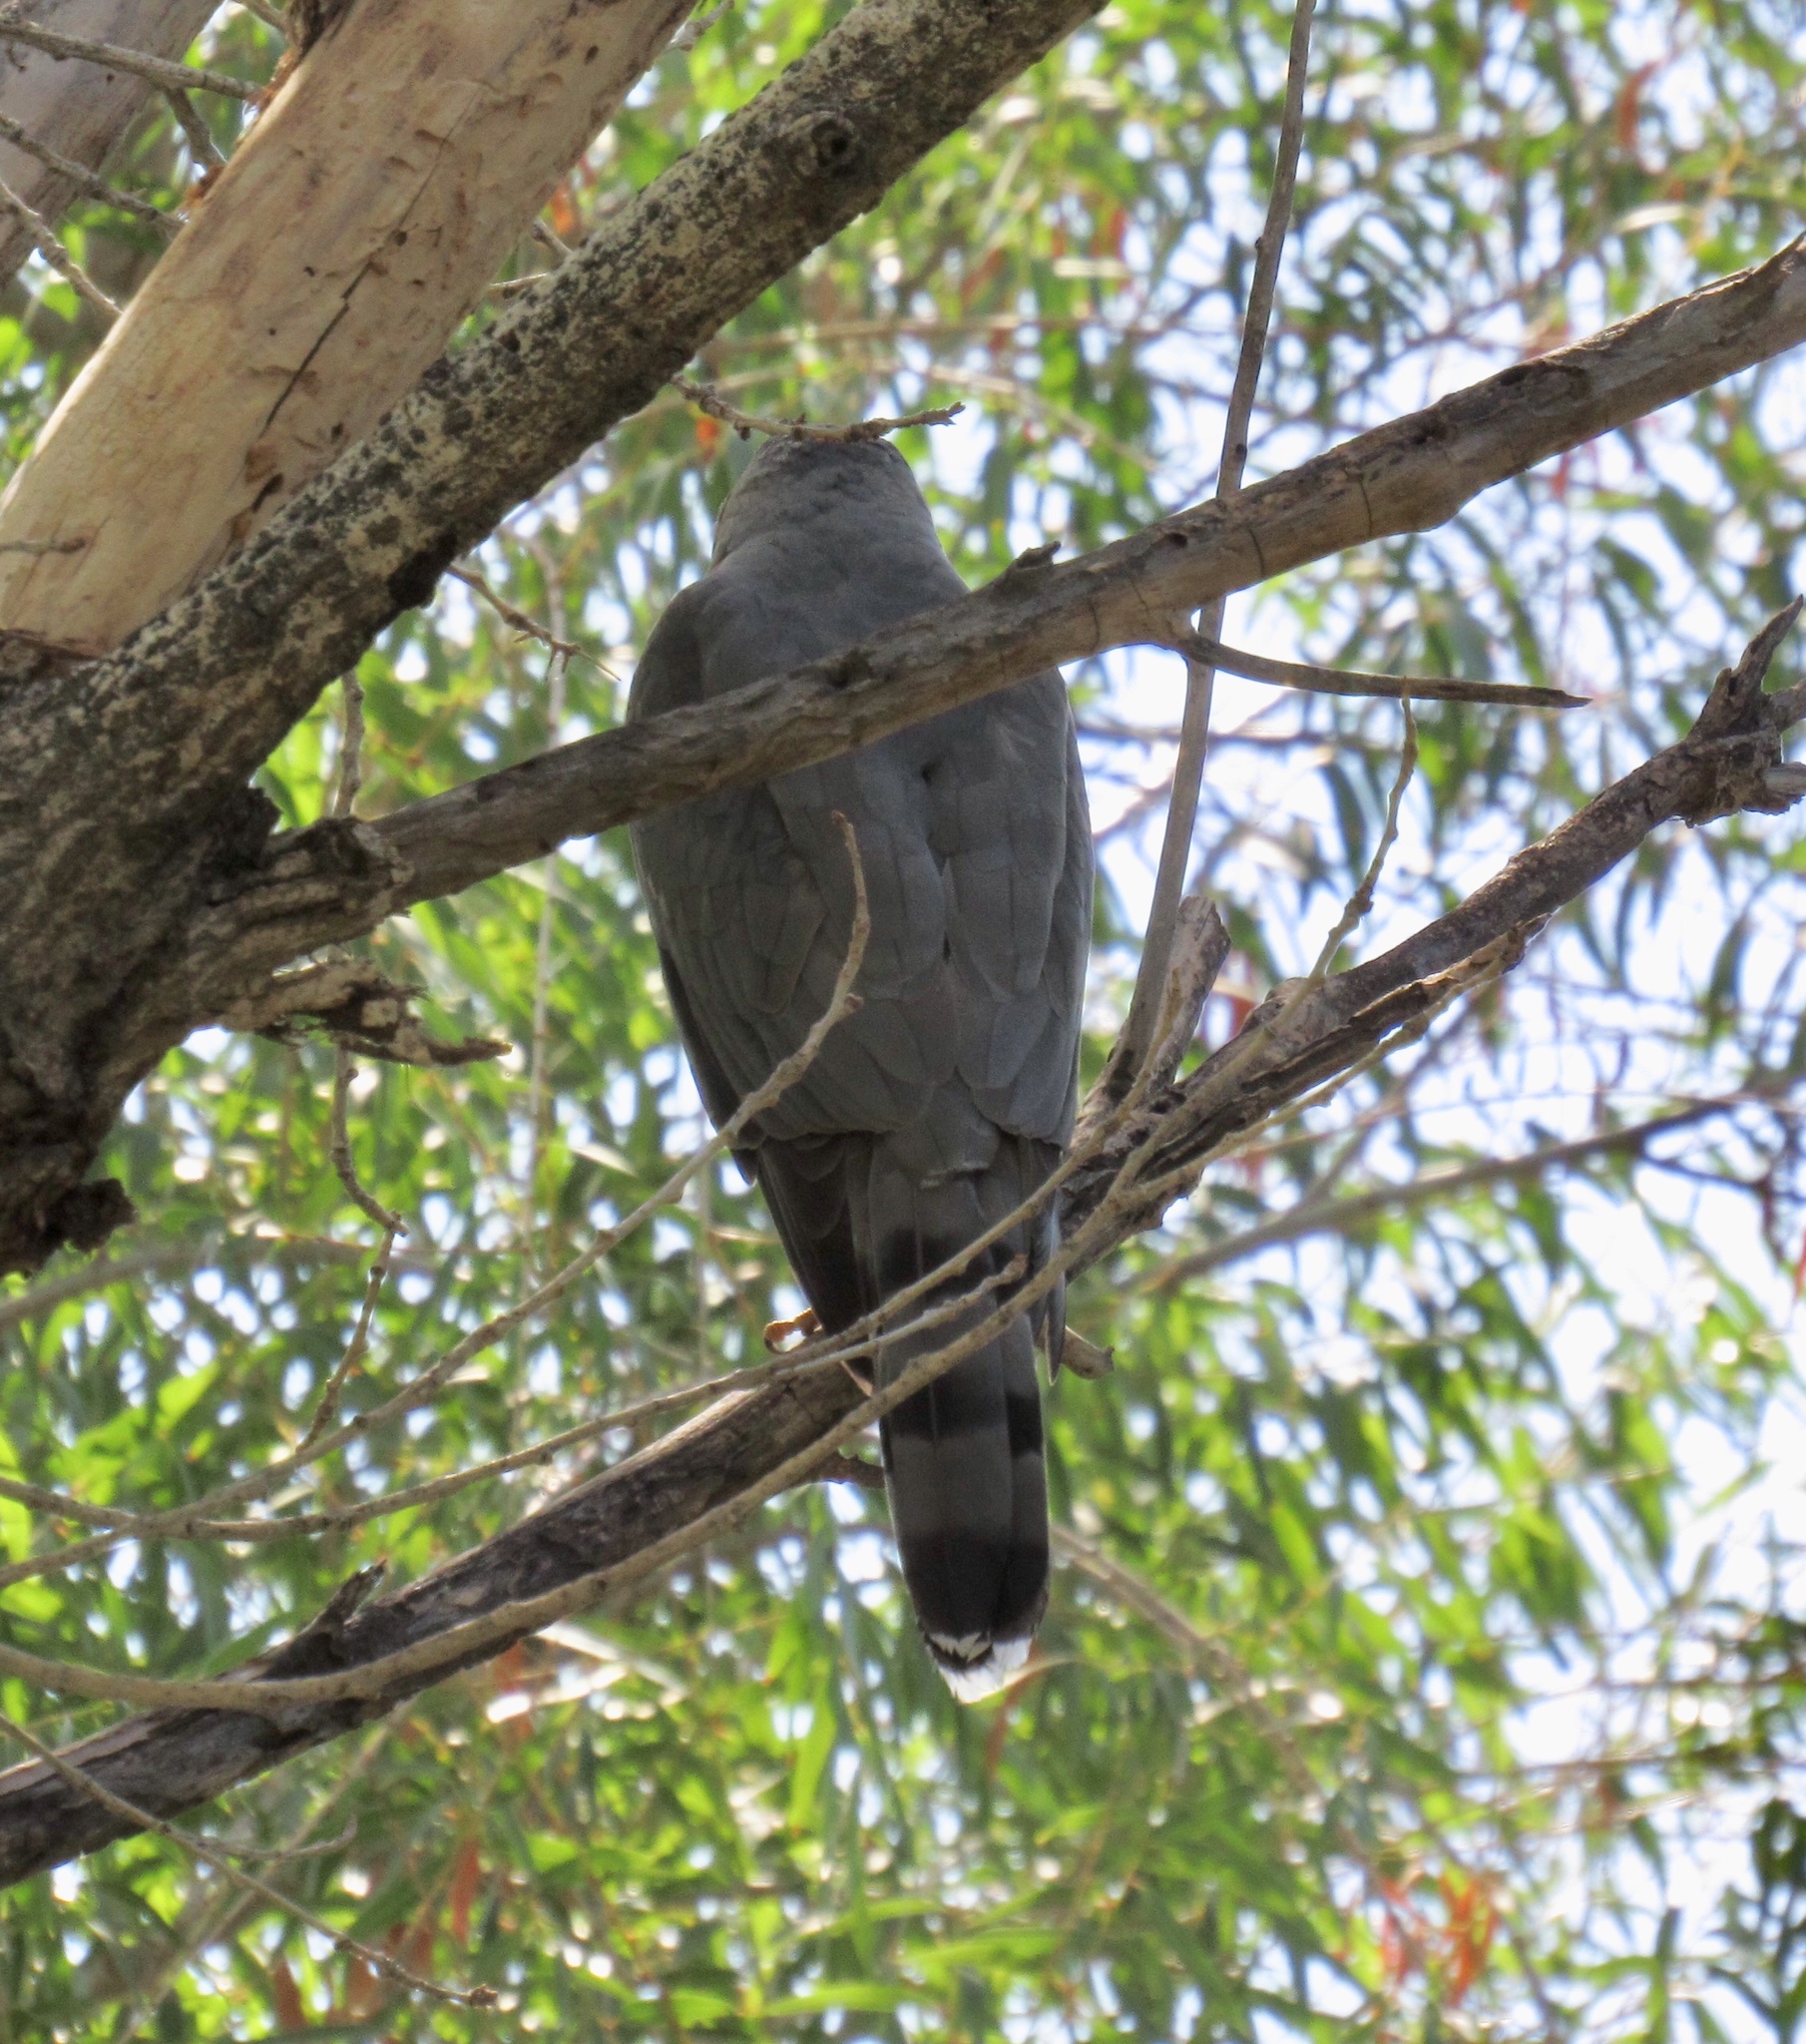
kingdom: Animalia
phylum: Chordata
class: Aves
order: Accipitriformes
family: Accipitridae
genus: Accipiter
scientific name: Accipiter cooperii
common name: Cooper's hawk
